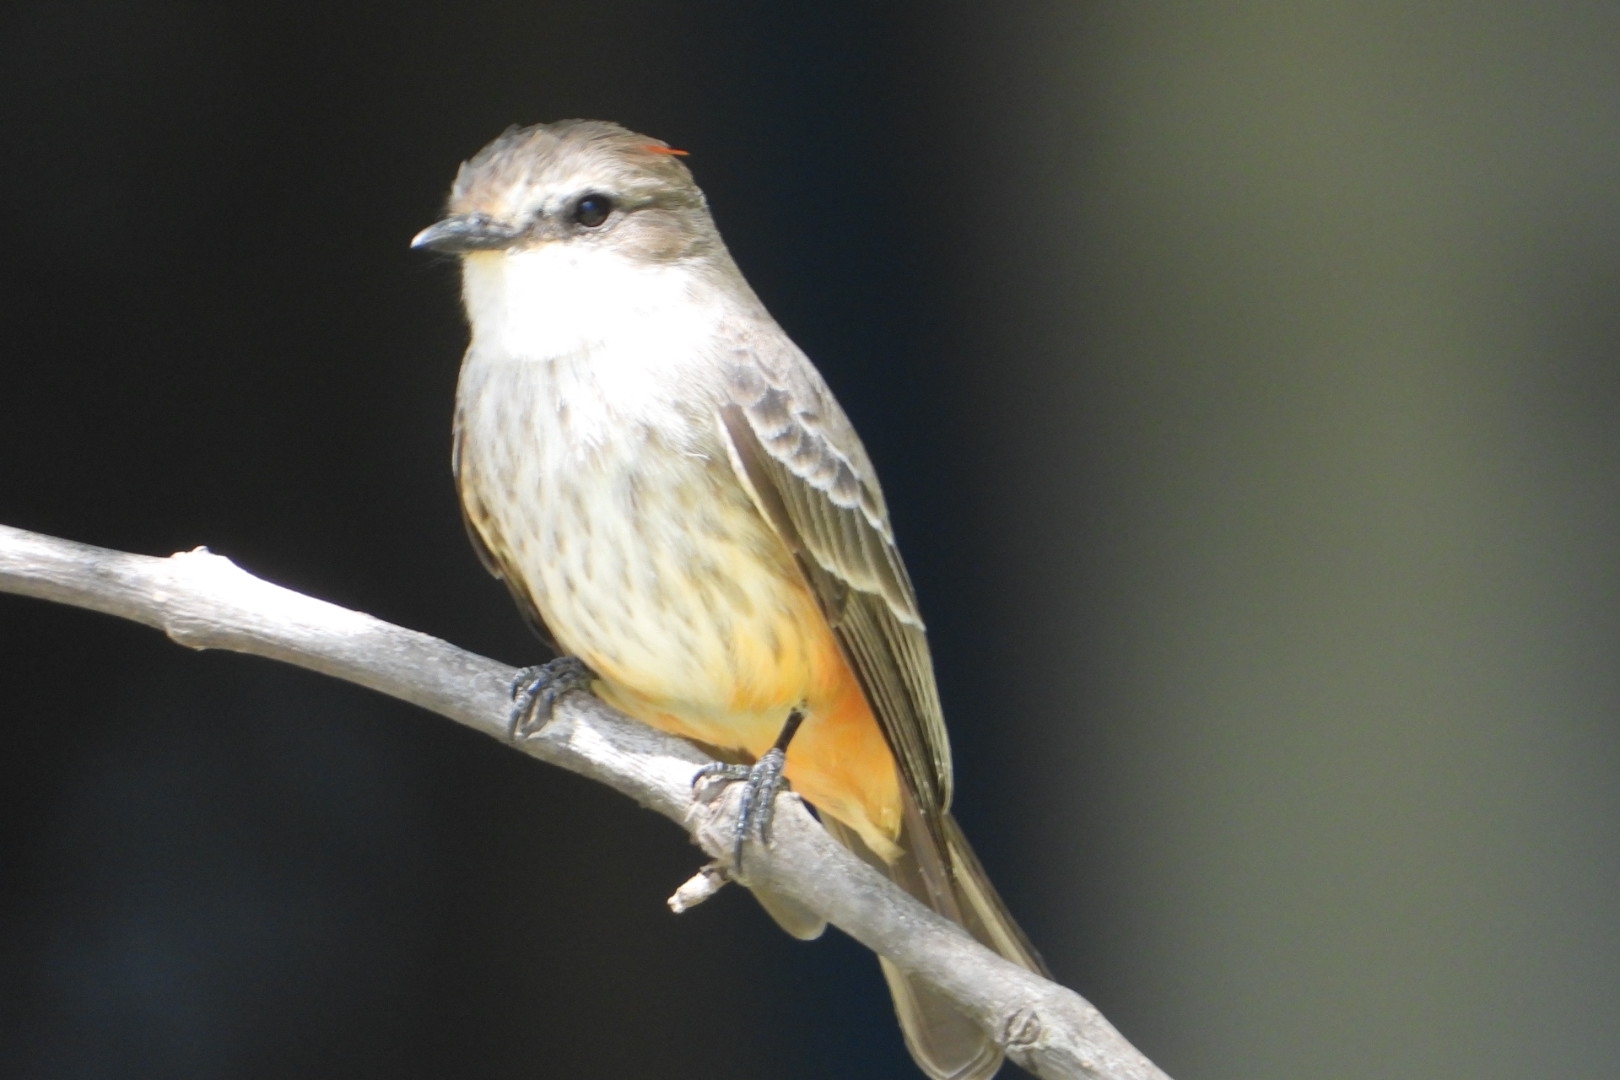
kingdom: Animalia
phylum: Chordata
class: Aves
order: Passeriformes
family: Tyrannidae
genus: Pyrocephalus
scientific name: Pyrocephalus rubinus
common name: Vermilion flycatcher
